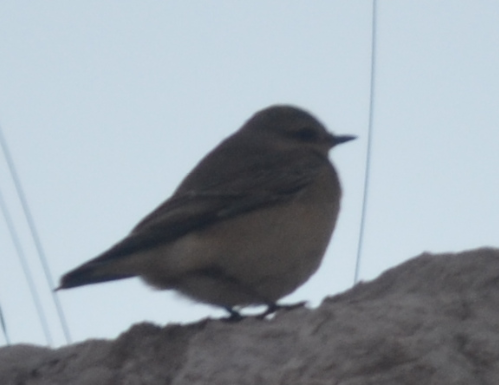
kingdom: Animalia
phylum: Chordata
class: Aves
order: Passeriformes
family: Muscicapidae
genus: Oenanthe
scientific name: Oenanthe oenanthe
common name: Northern wheatear
